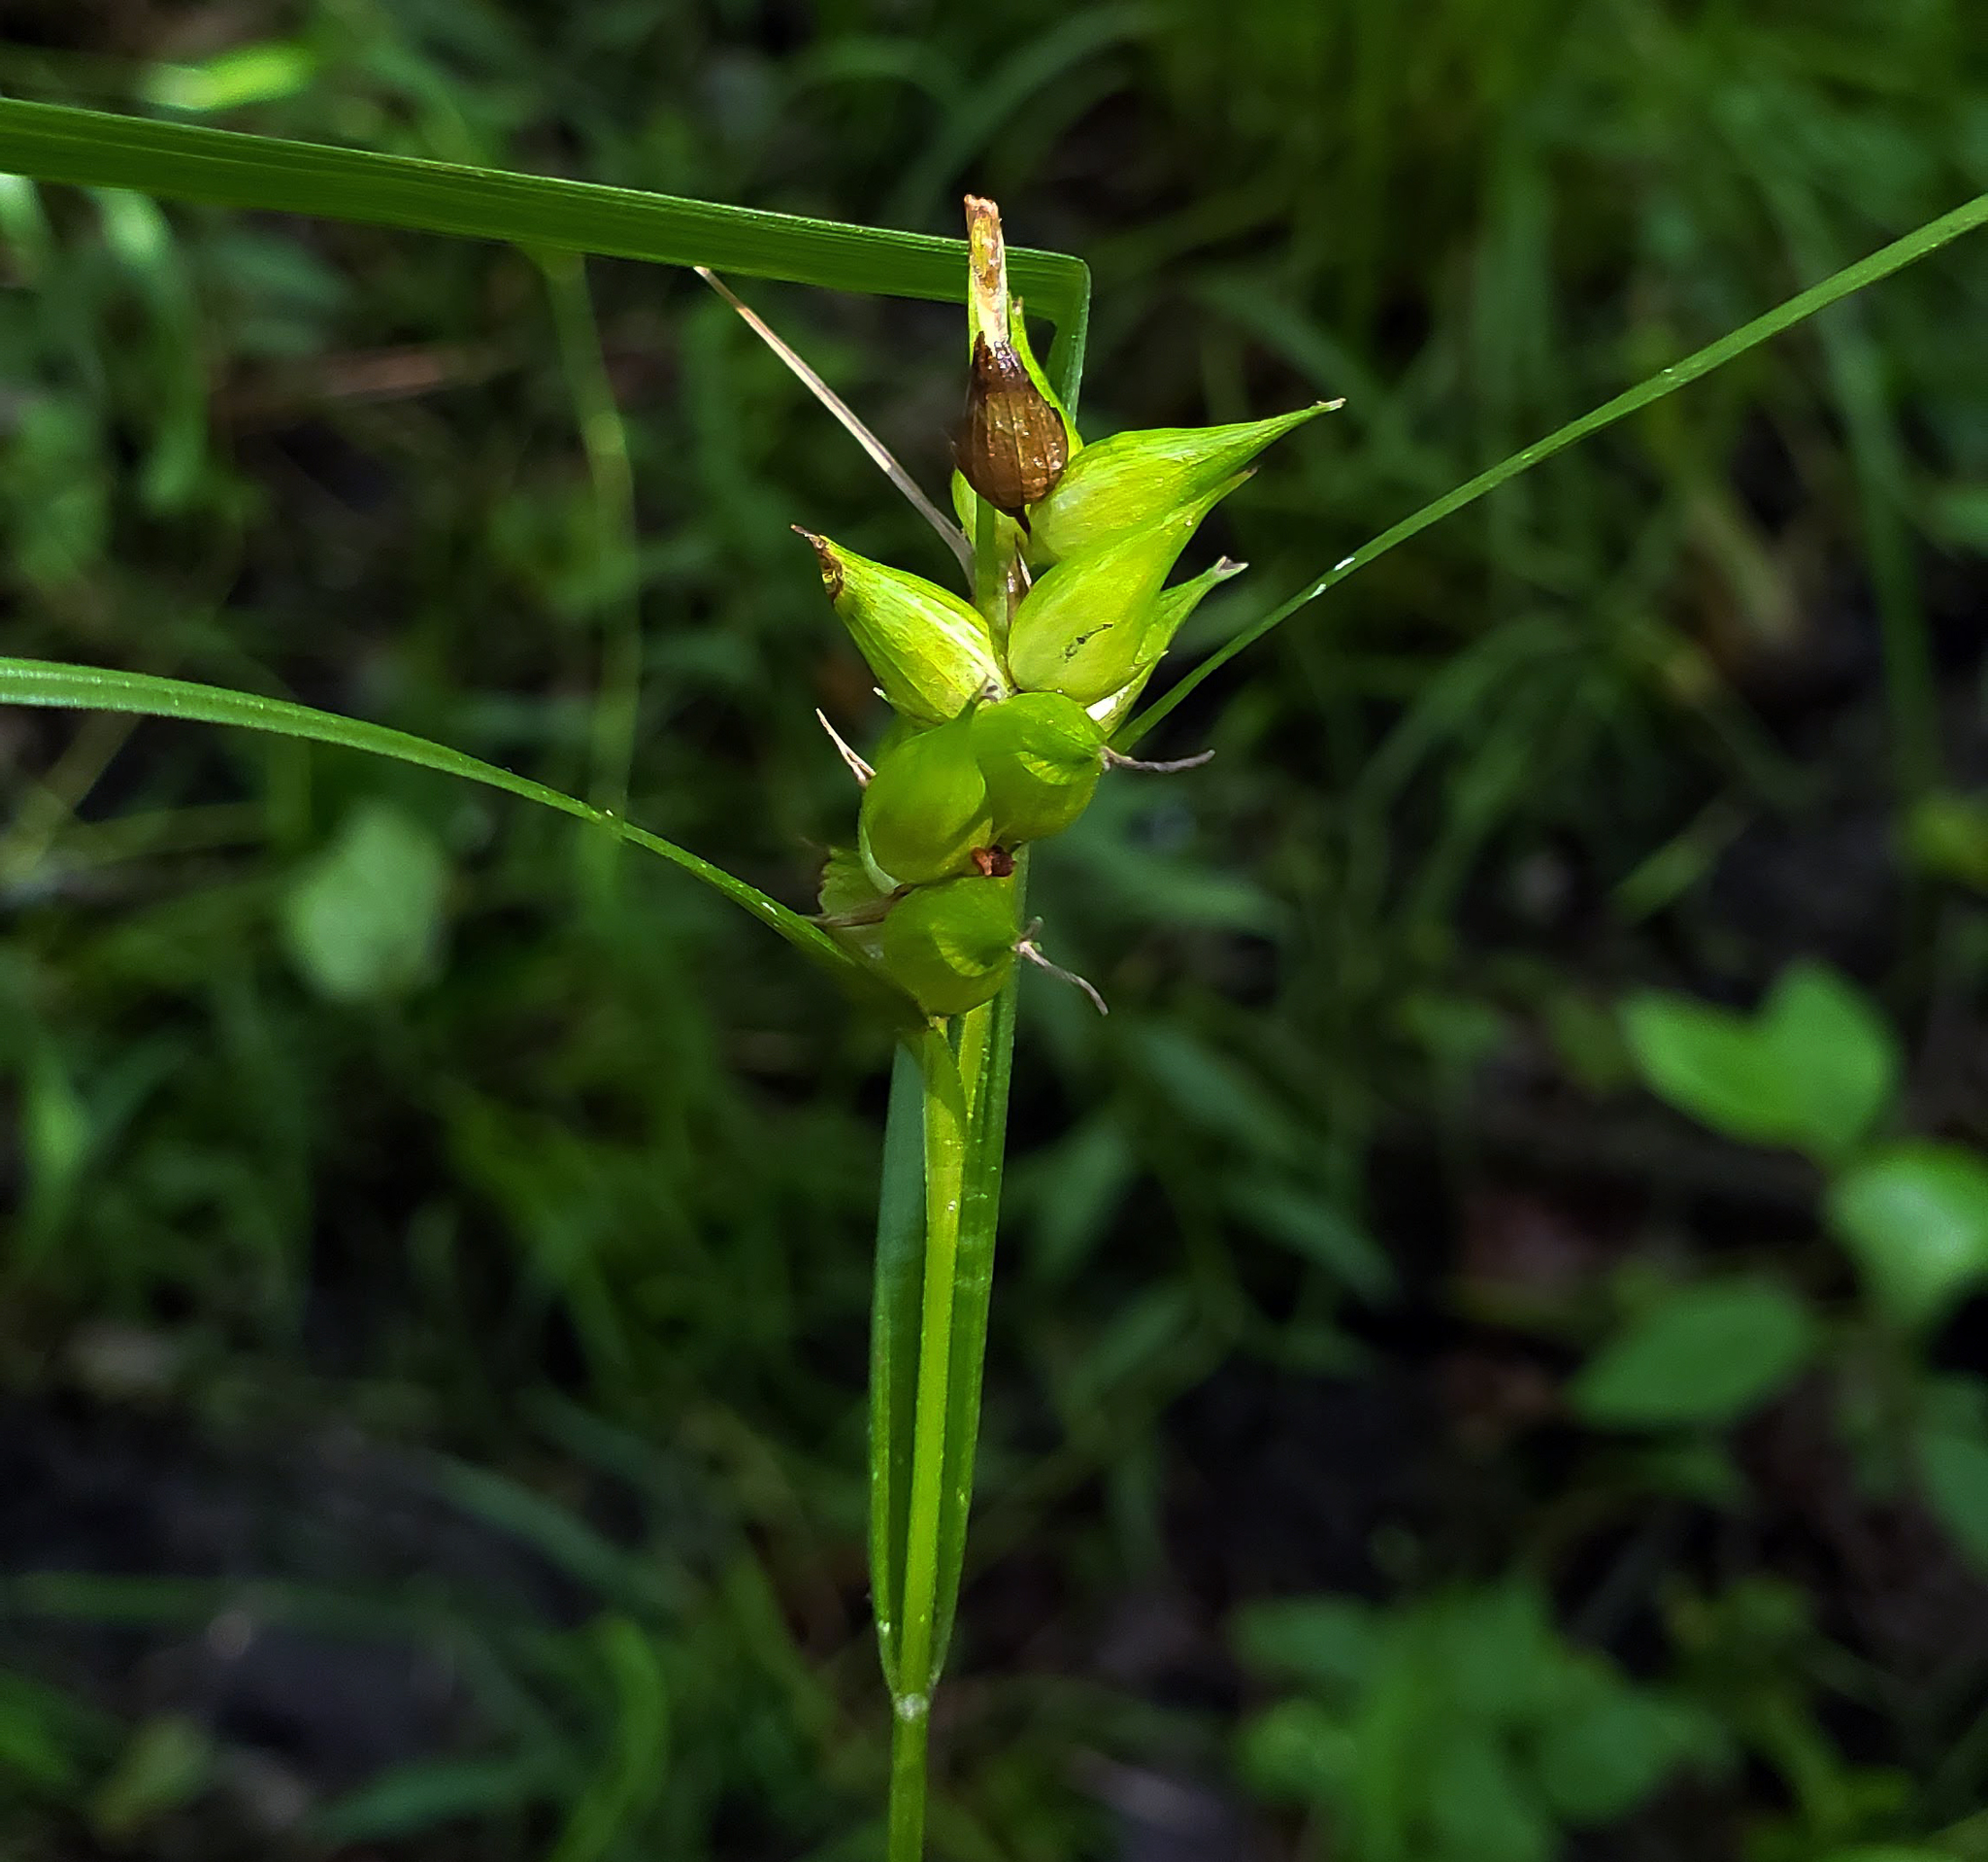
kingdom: Plantae
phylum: Tracheophyta
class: Liliopsida
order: Poales
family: Cyperaceae
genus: Carex
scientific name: Carex intumescens
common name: Greater bladder sedge
